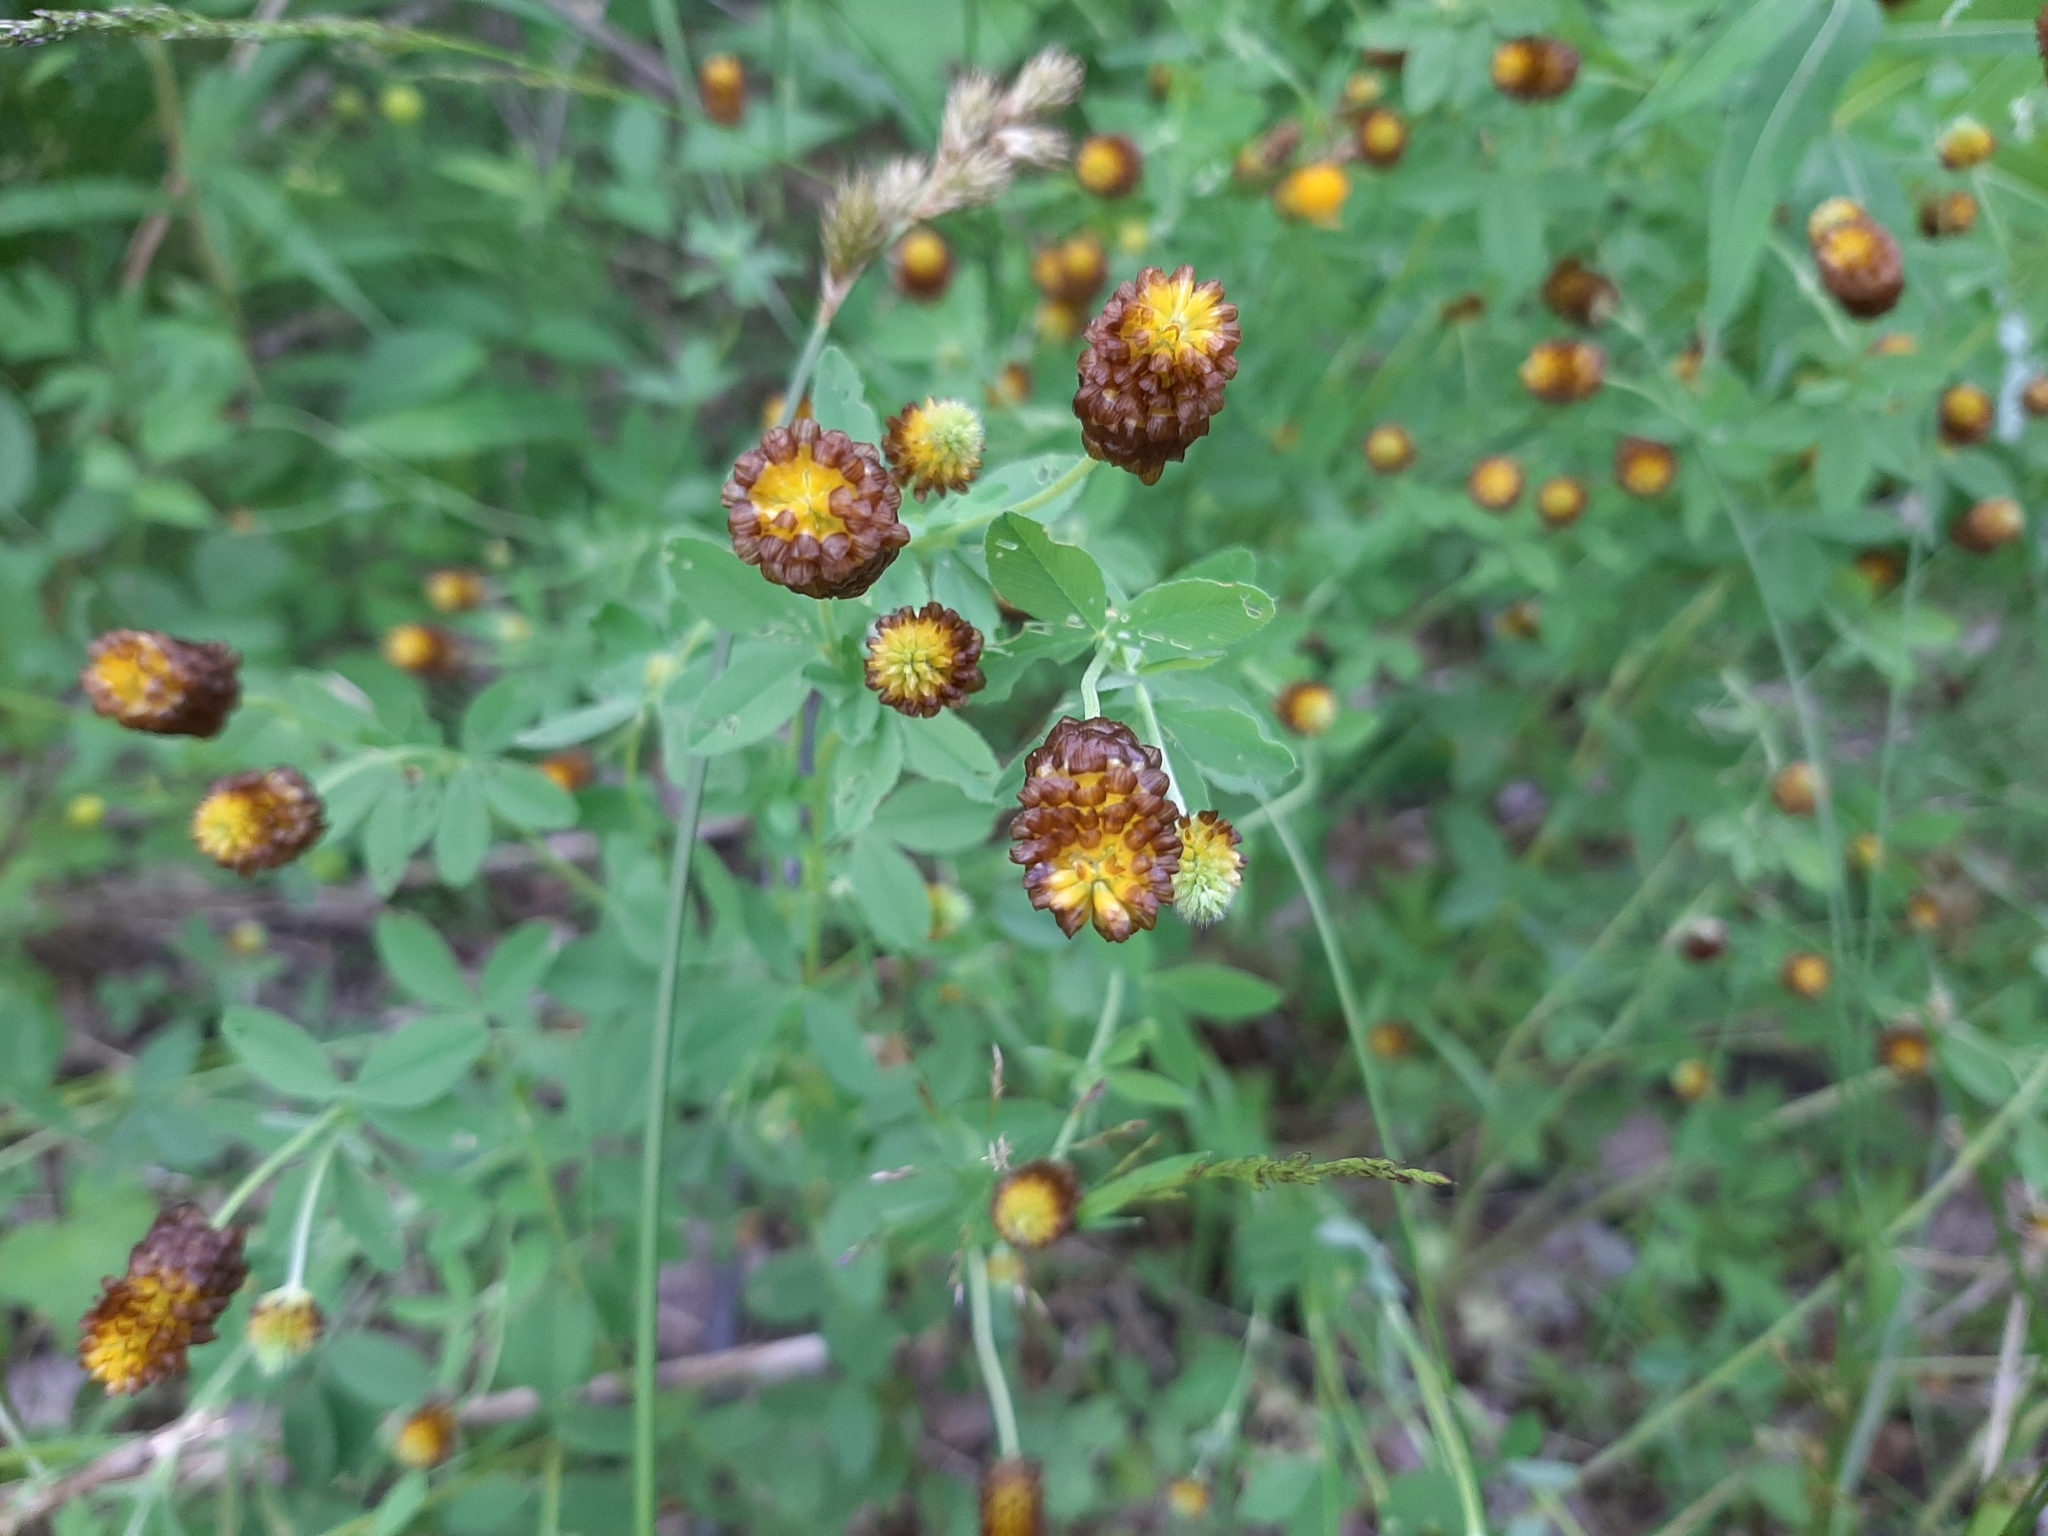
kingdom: Plantae
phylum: Tracheophyta
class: Magnoliopsida
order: Fabales
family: Fabaceae
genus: Trifolium
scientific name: Trifolium spadiceum
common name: Brown moor clover
